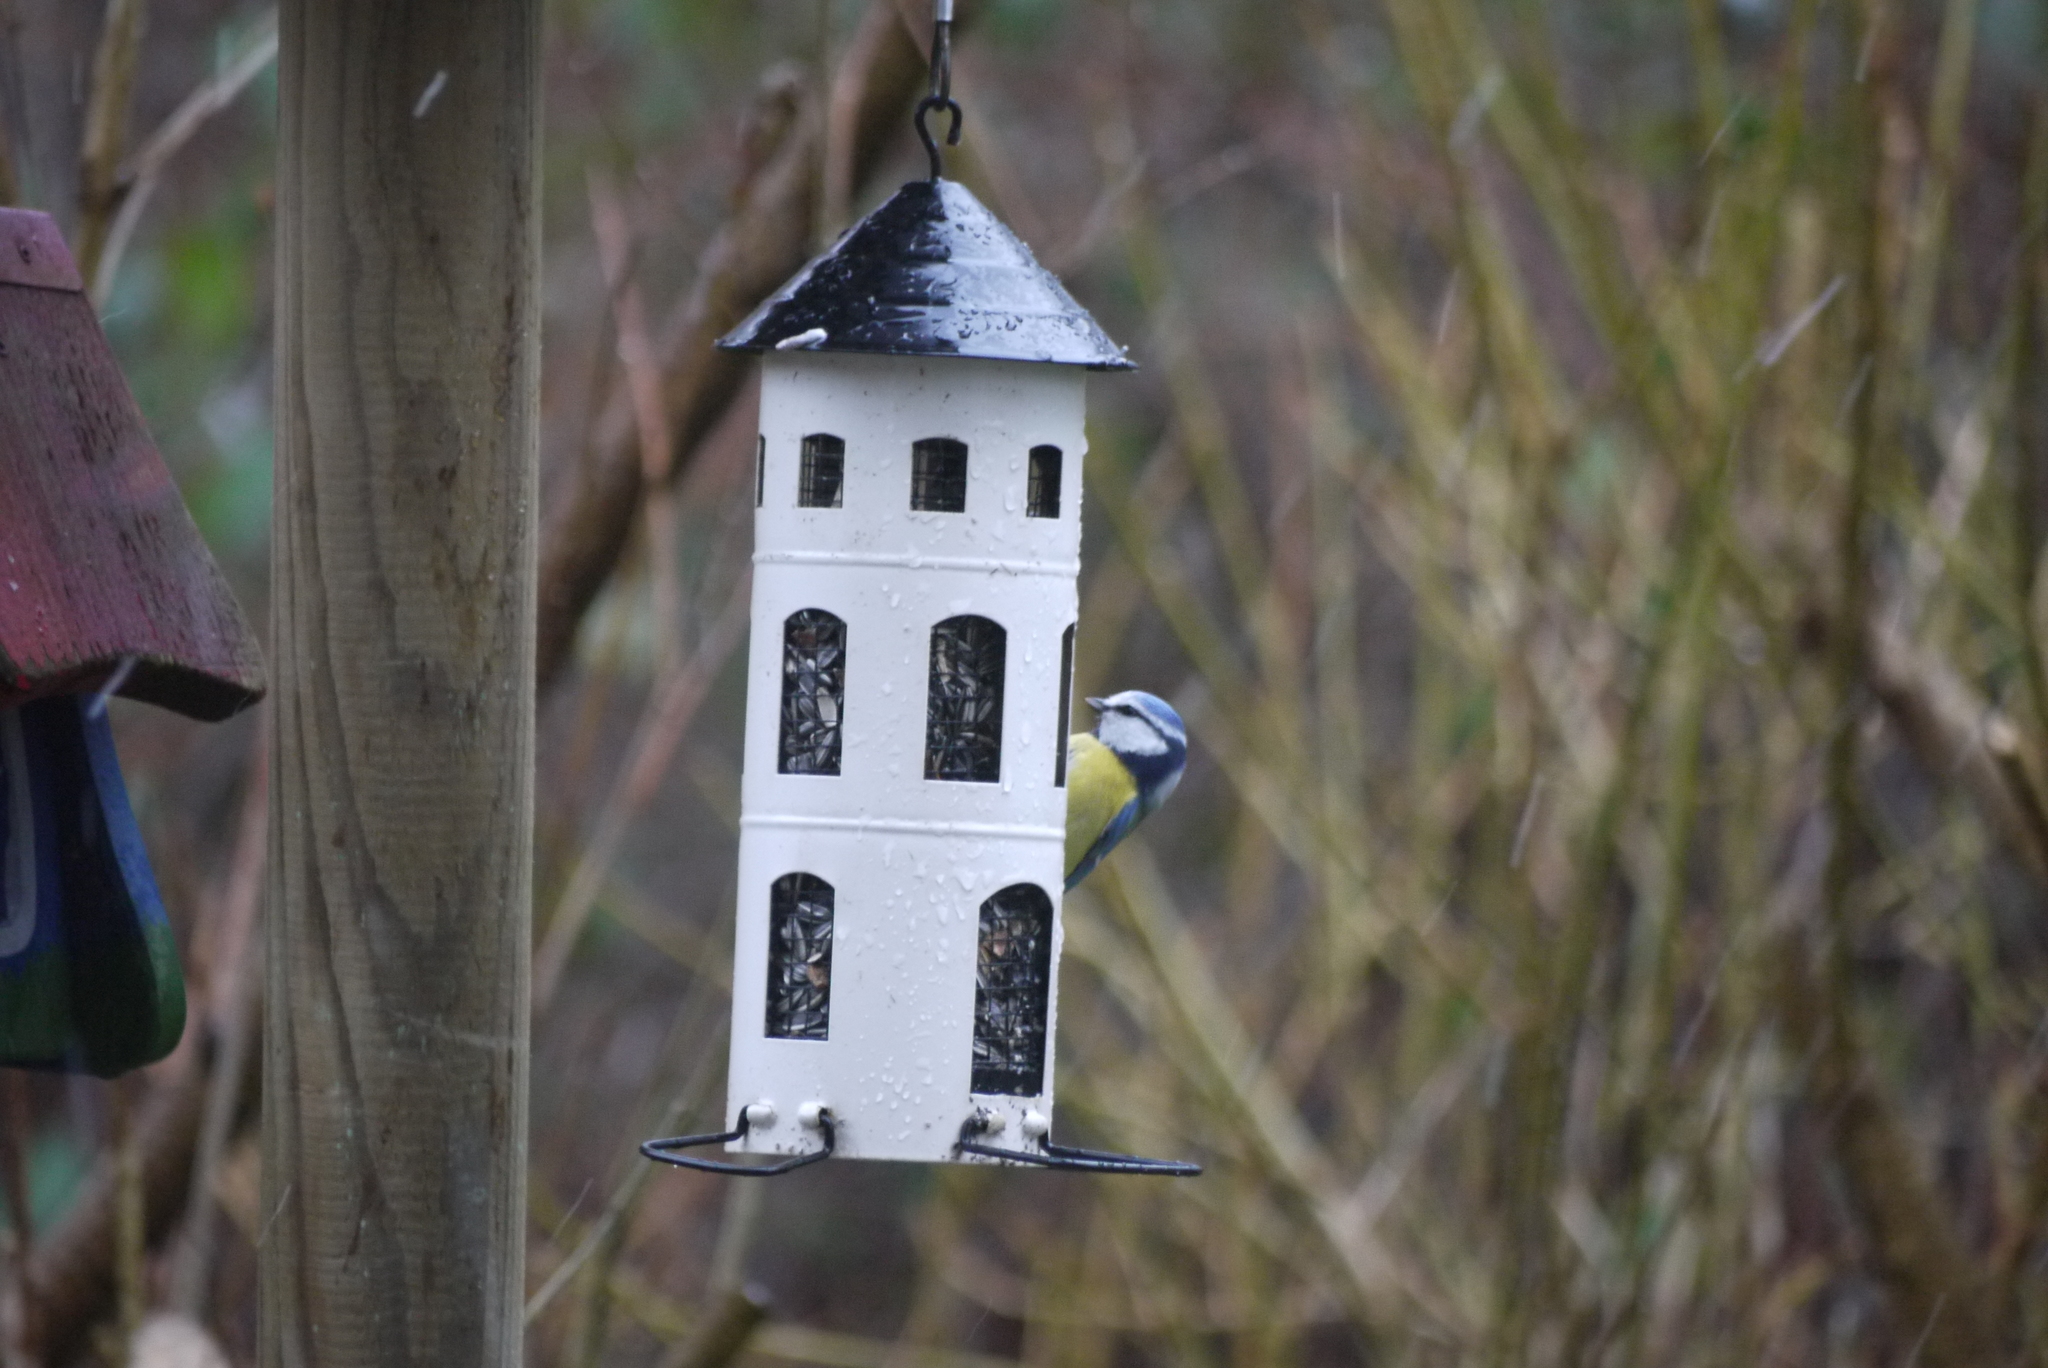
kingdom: Animalia
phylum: Chordata
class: Aves
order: Passeriformes
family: Paridae
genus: Cyanistes
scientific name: Cyanistes caeruleus
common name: Eurasian blue tit
